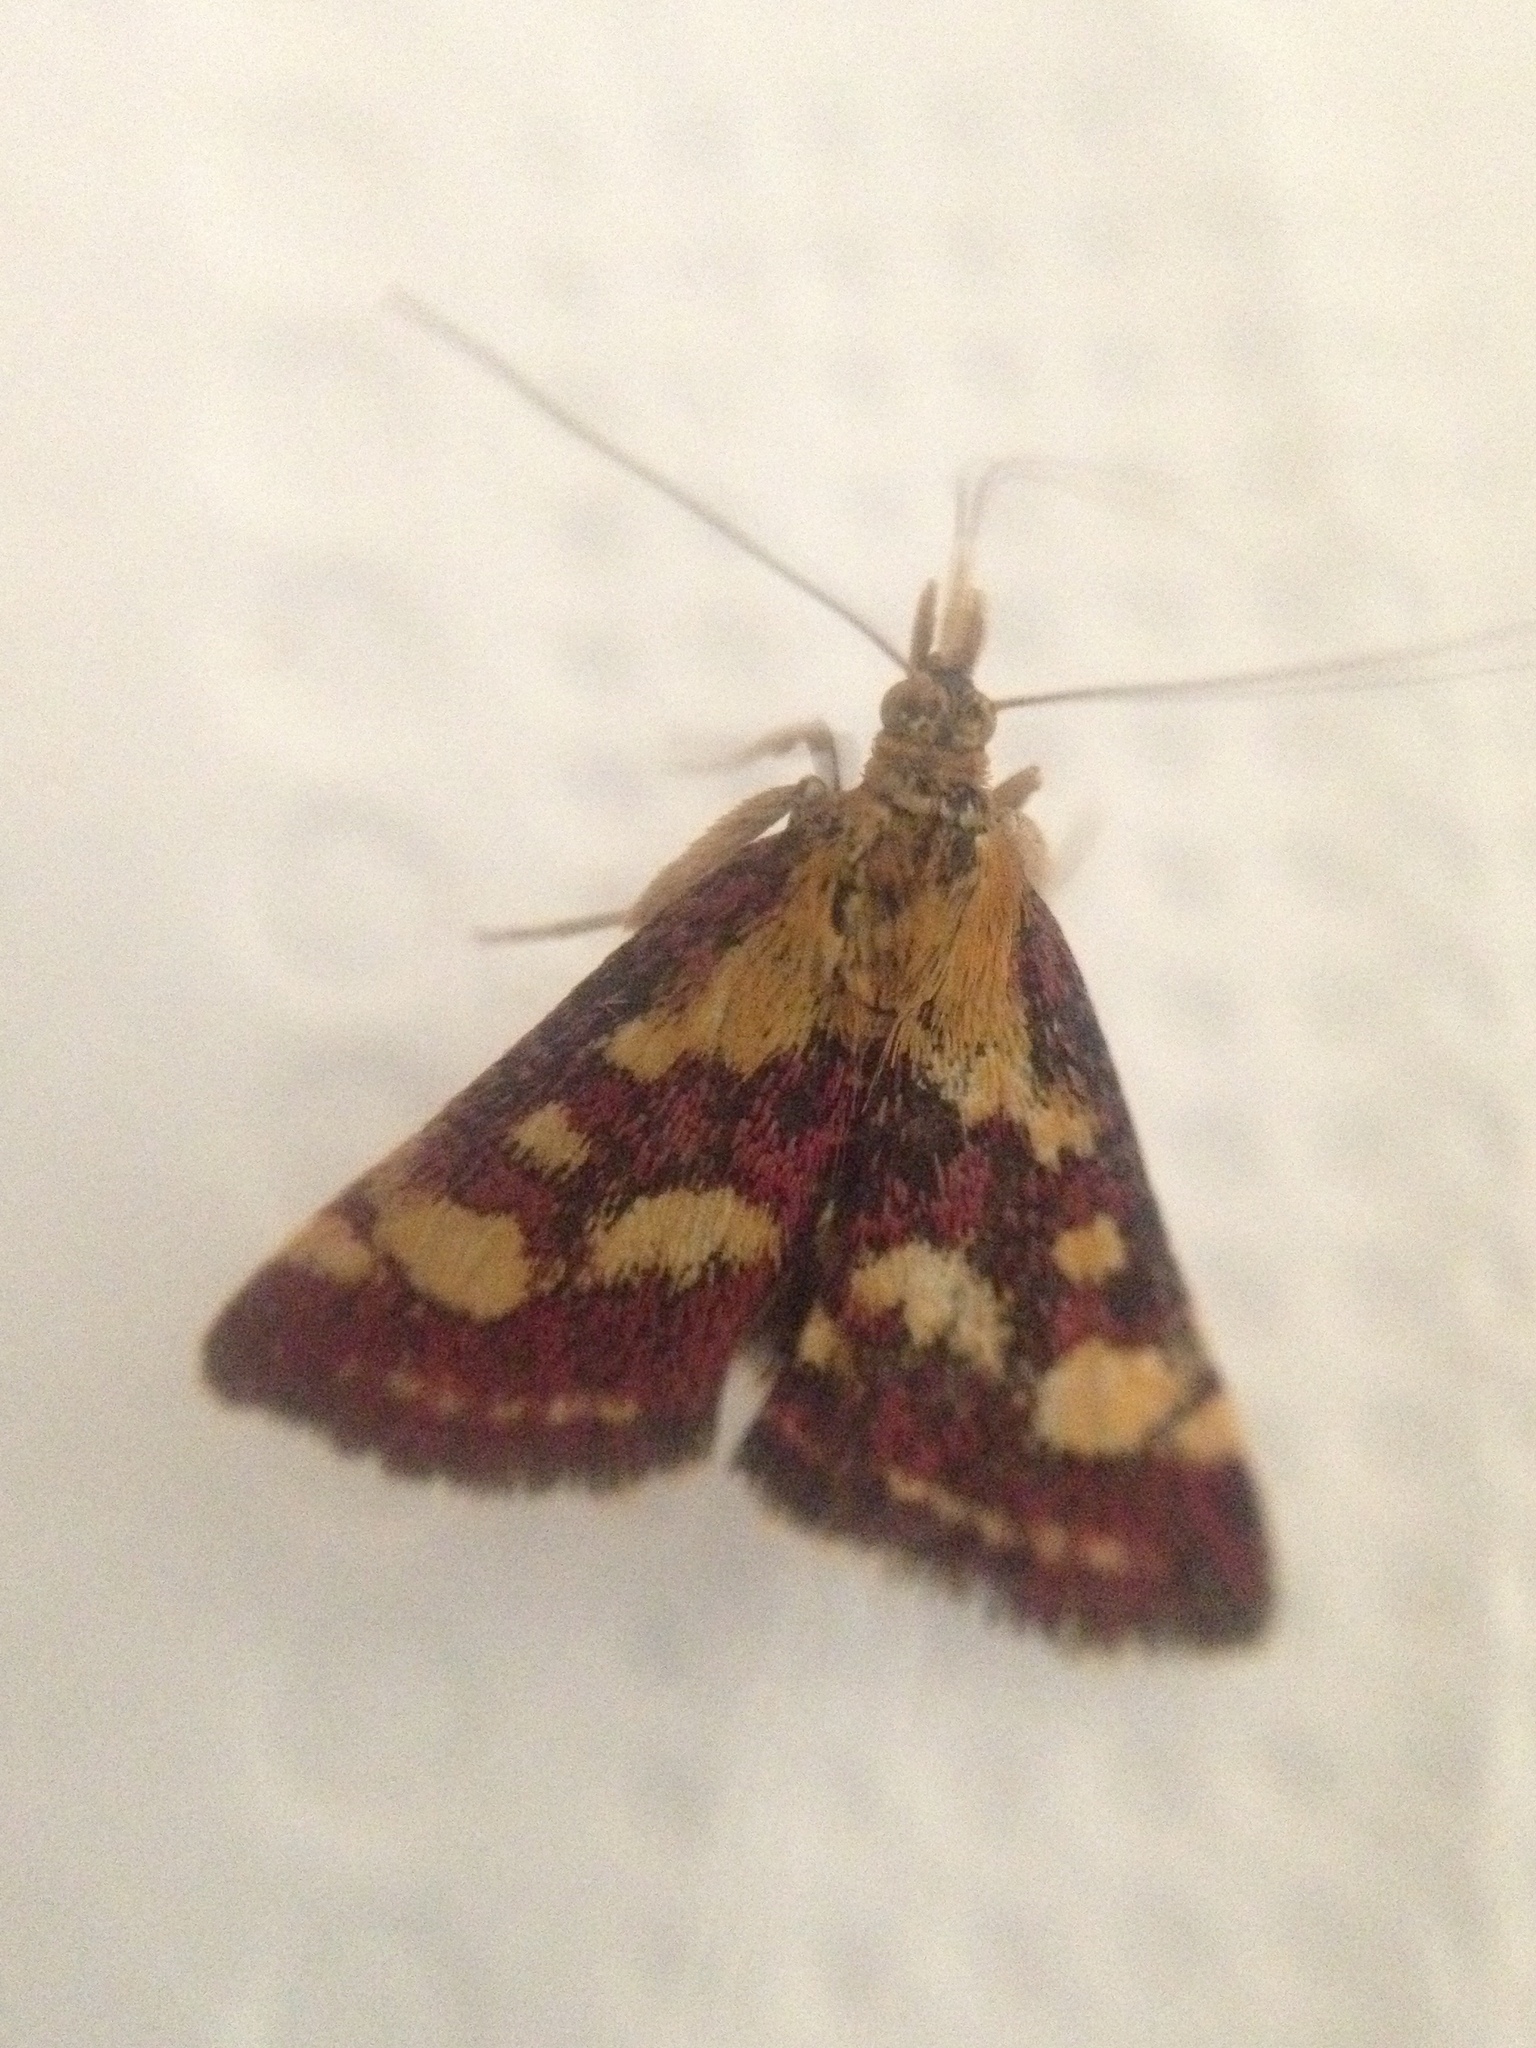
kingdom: Animalia
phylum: Arthropoda
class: Insecta
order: Lepidoptera
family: Crambidae
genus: Pyrausta
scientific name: Pyrausta purpuralis
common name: Common purple & gold
